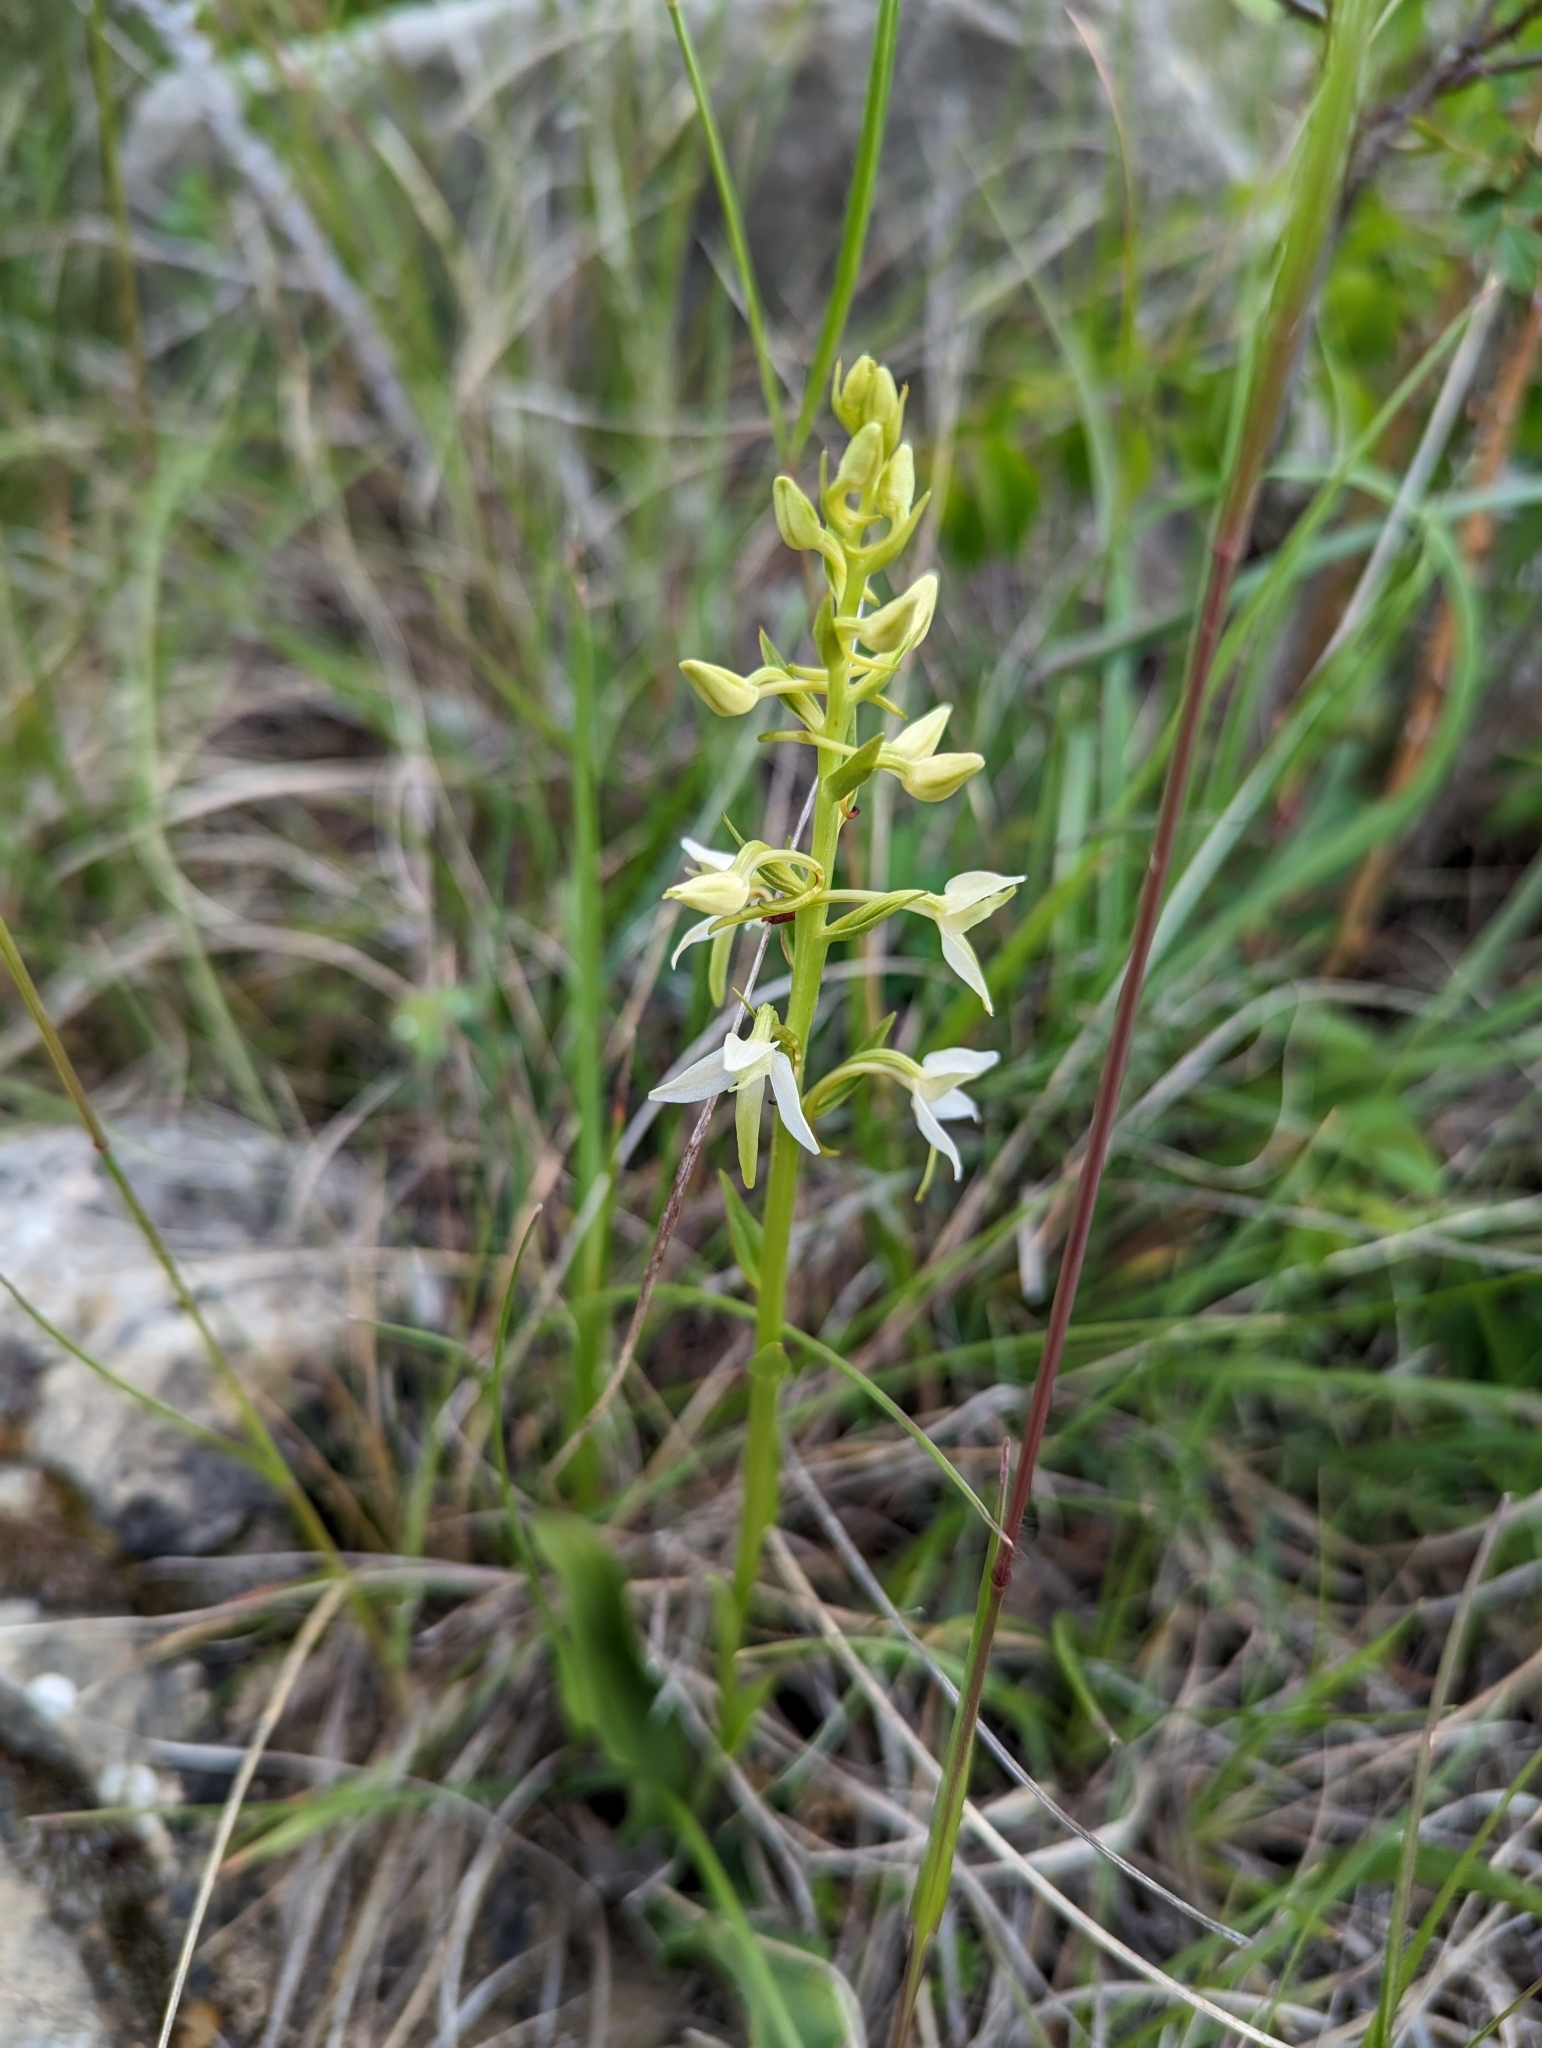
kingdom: Plantae
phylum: Tracheophyta
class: Liliopsida
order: Asparagales
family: Orchidaceae
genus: Platanthera
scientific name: Platanthera bifolia
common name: Lesser butterfly-orchid
